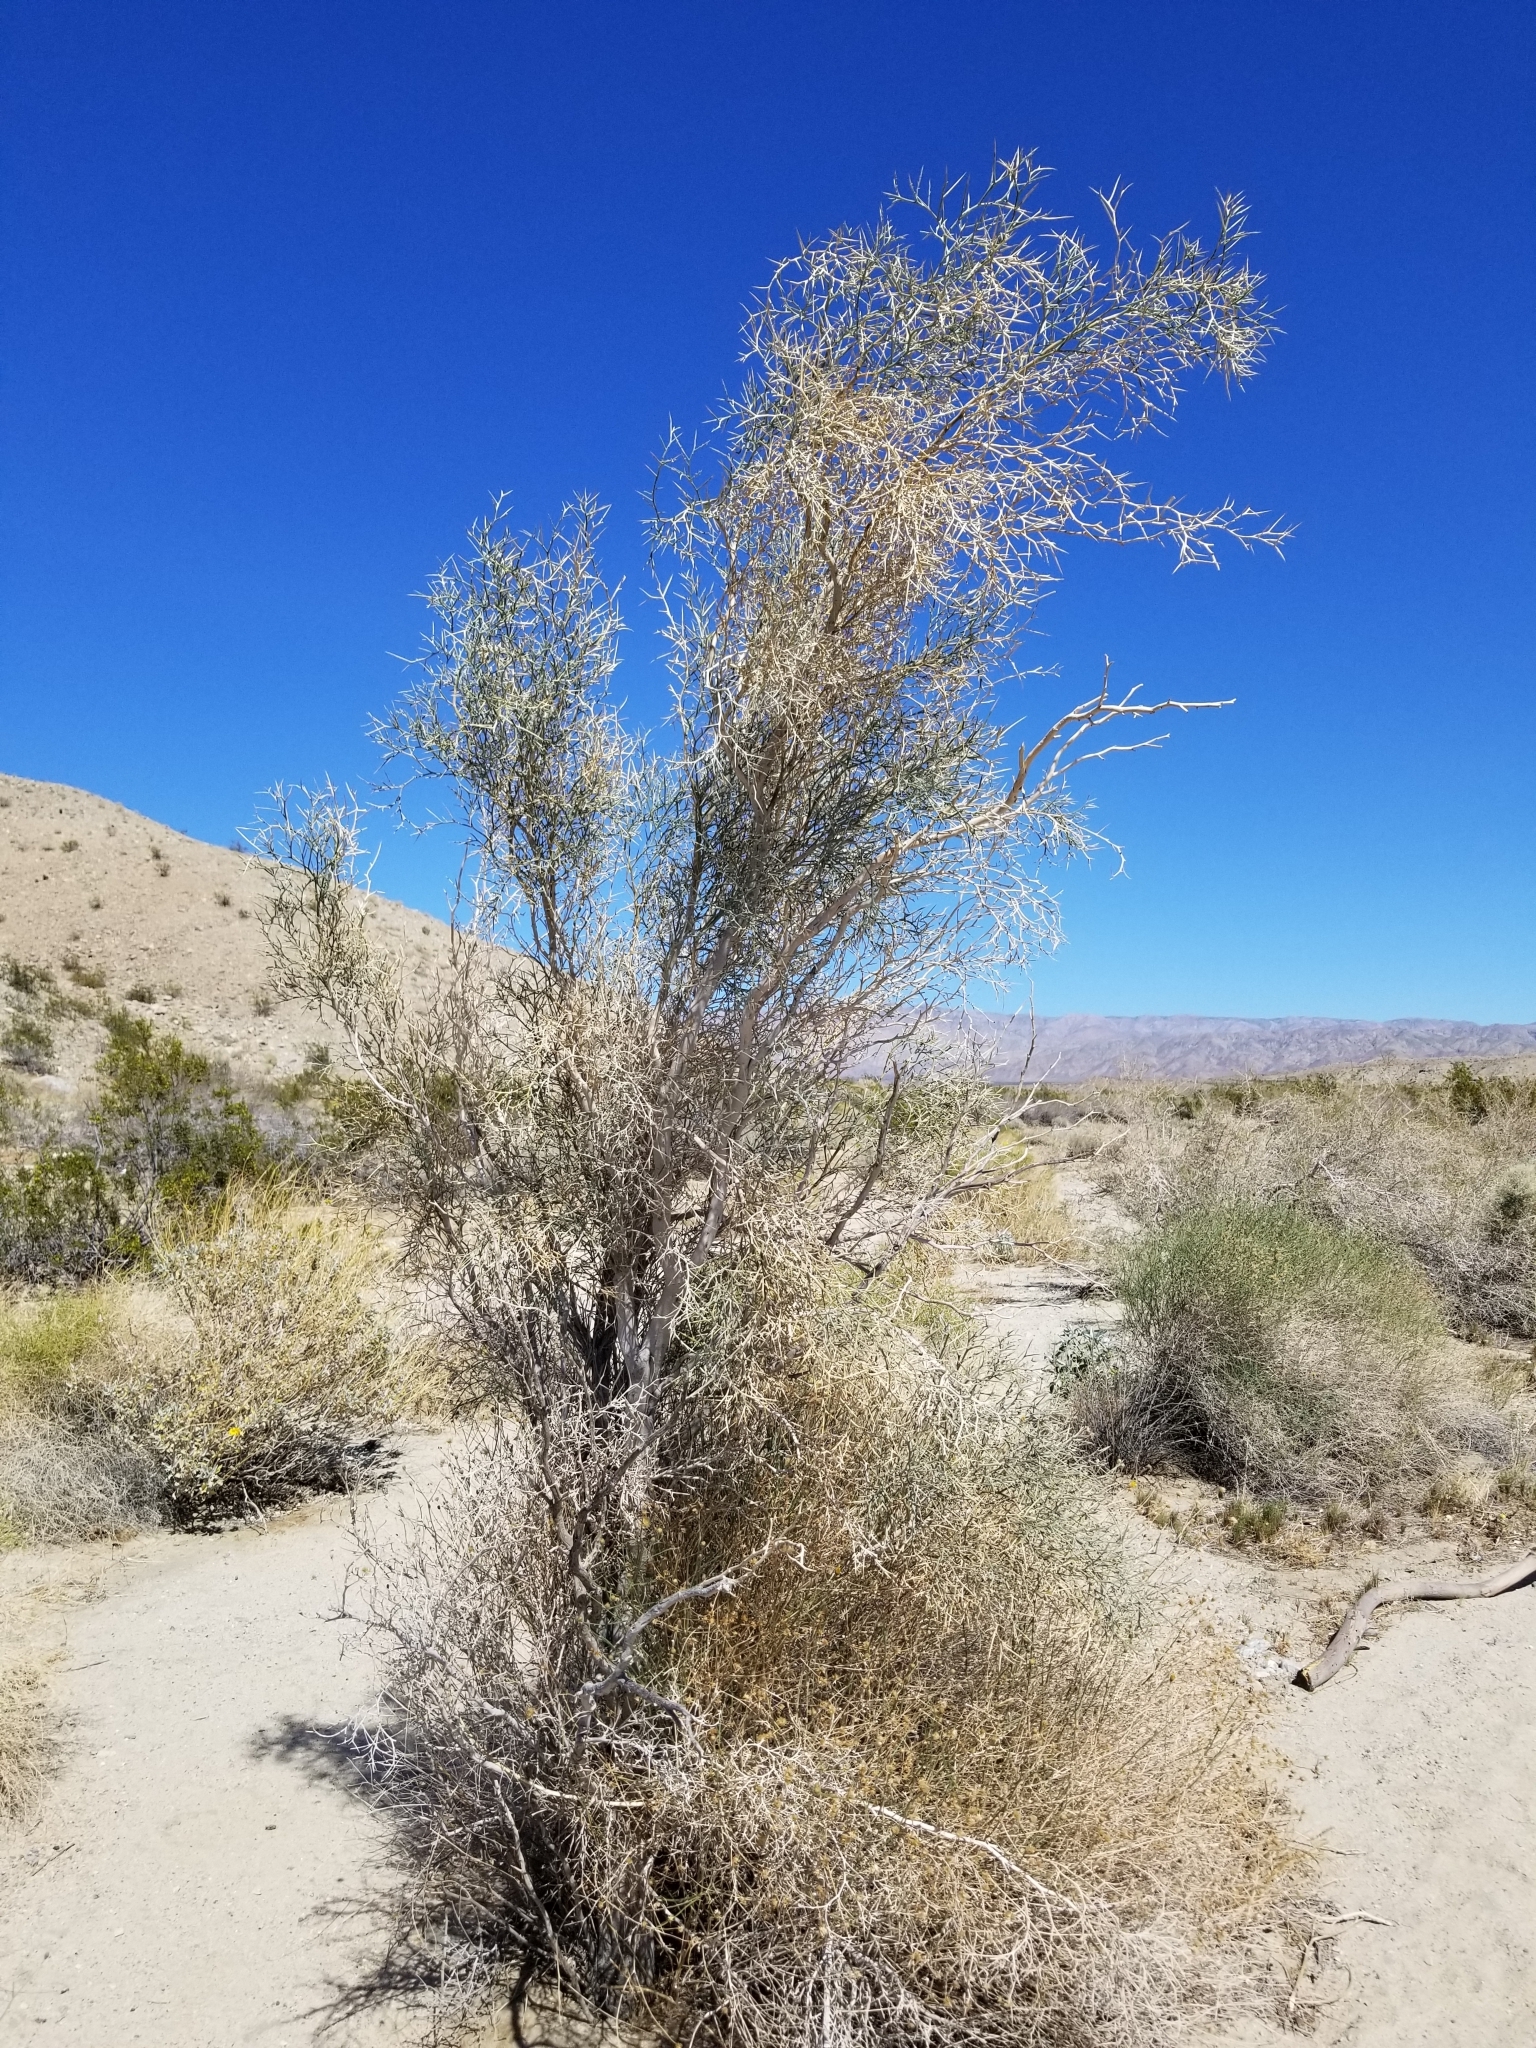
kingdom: Plantae
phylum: Tracheophyta
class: Magnoliopsida
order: Fabales
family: Fabaceae
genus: Psorothamnus
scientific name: Psorothamnus spinosus
